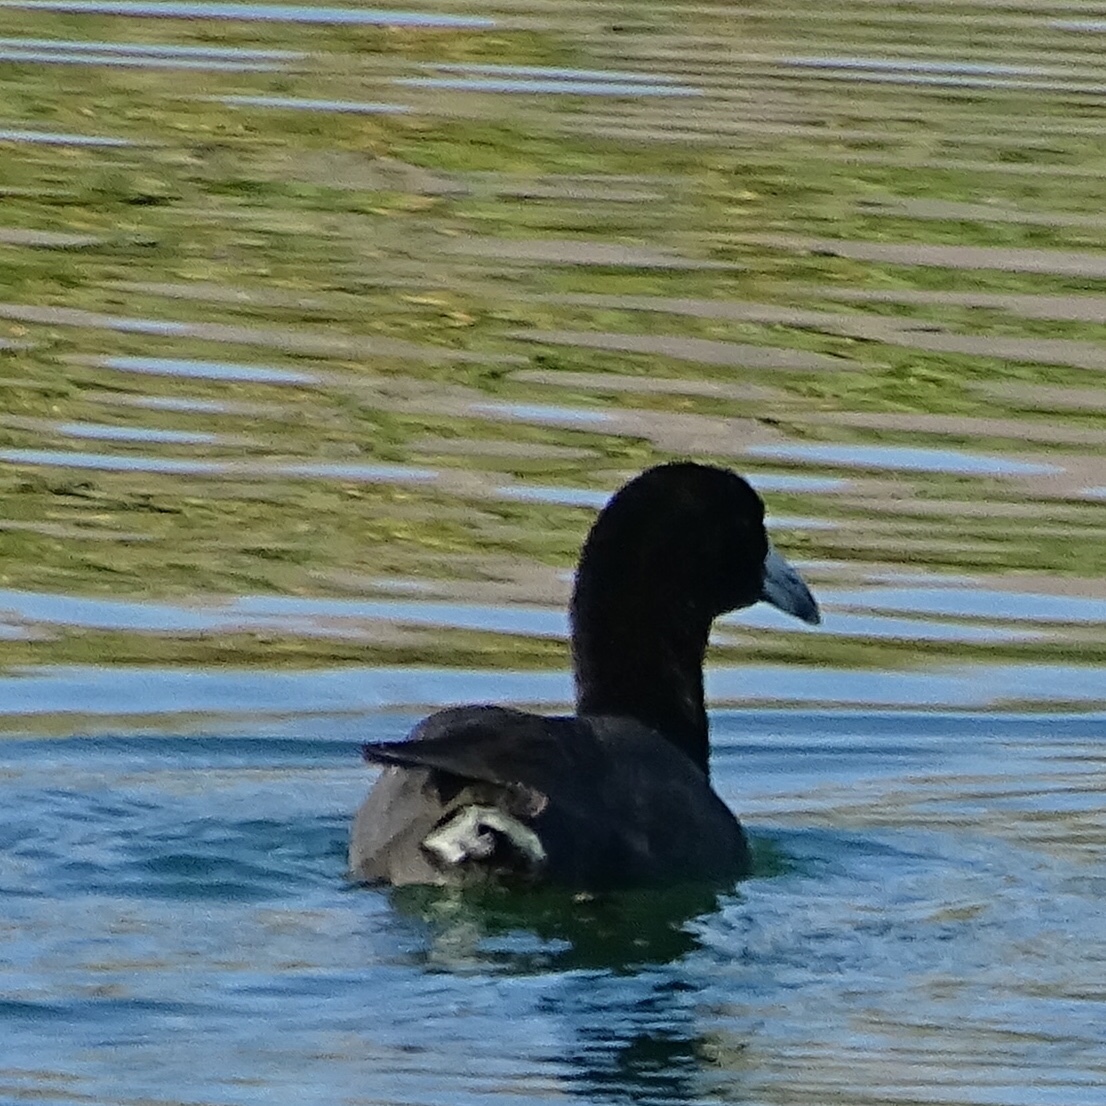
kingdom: Animalia
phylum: Chordata
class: Aves
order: Gruiformes
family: Rallidae
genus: Fulica
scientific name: Fulica americana
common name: American coot
